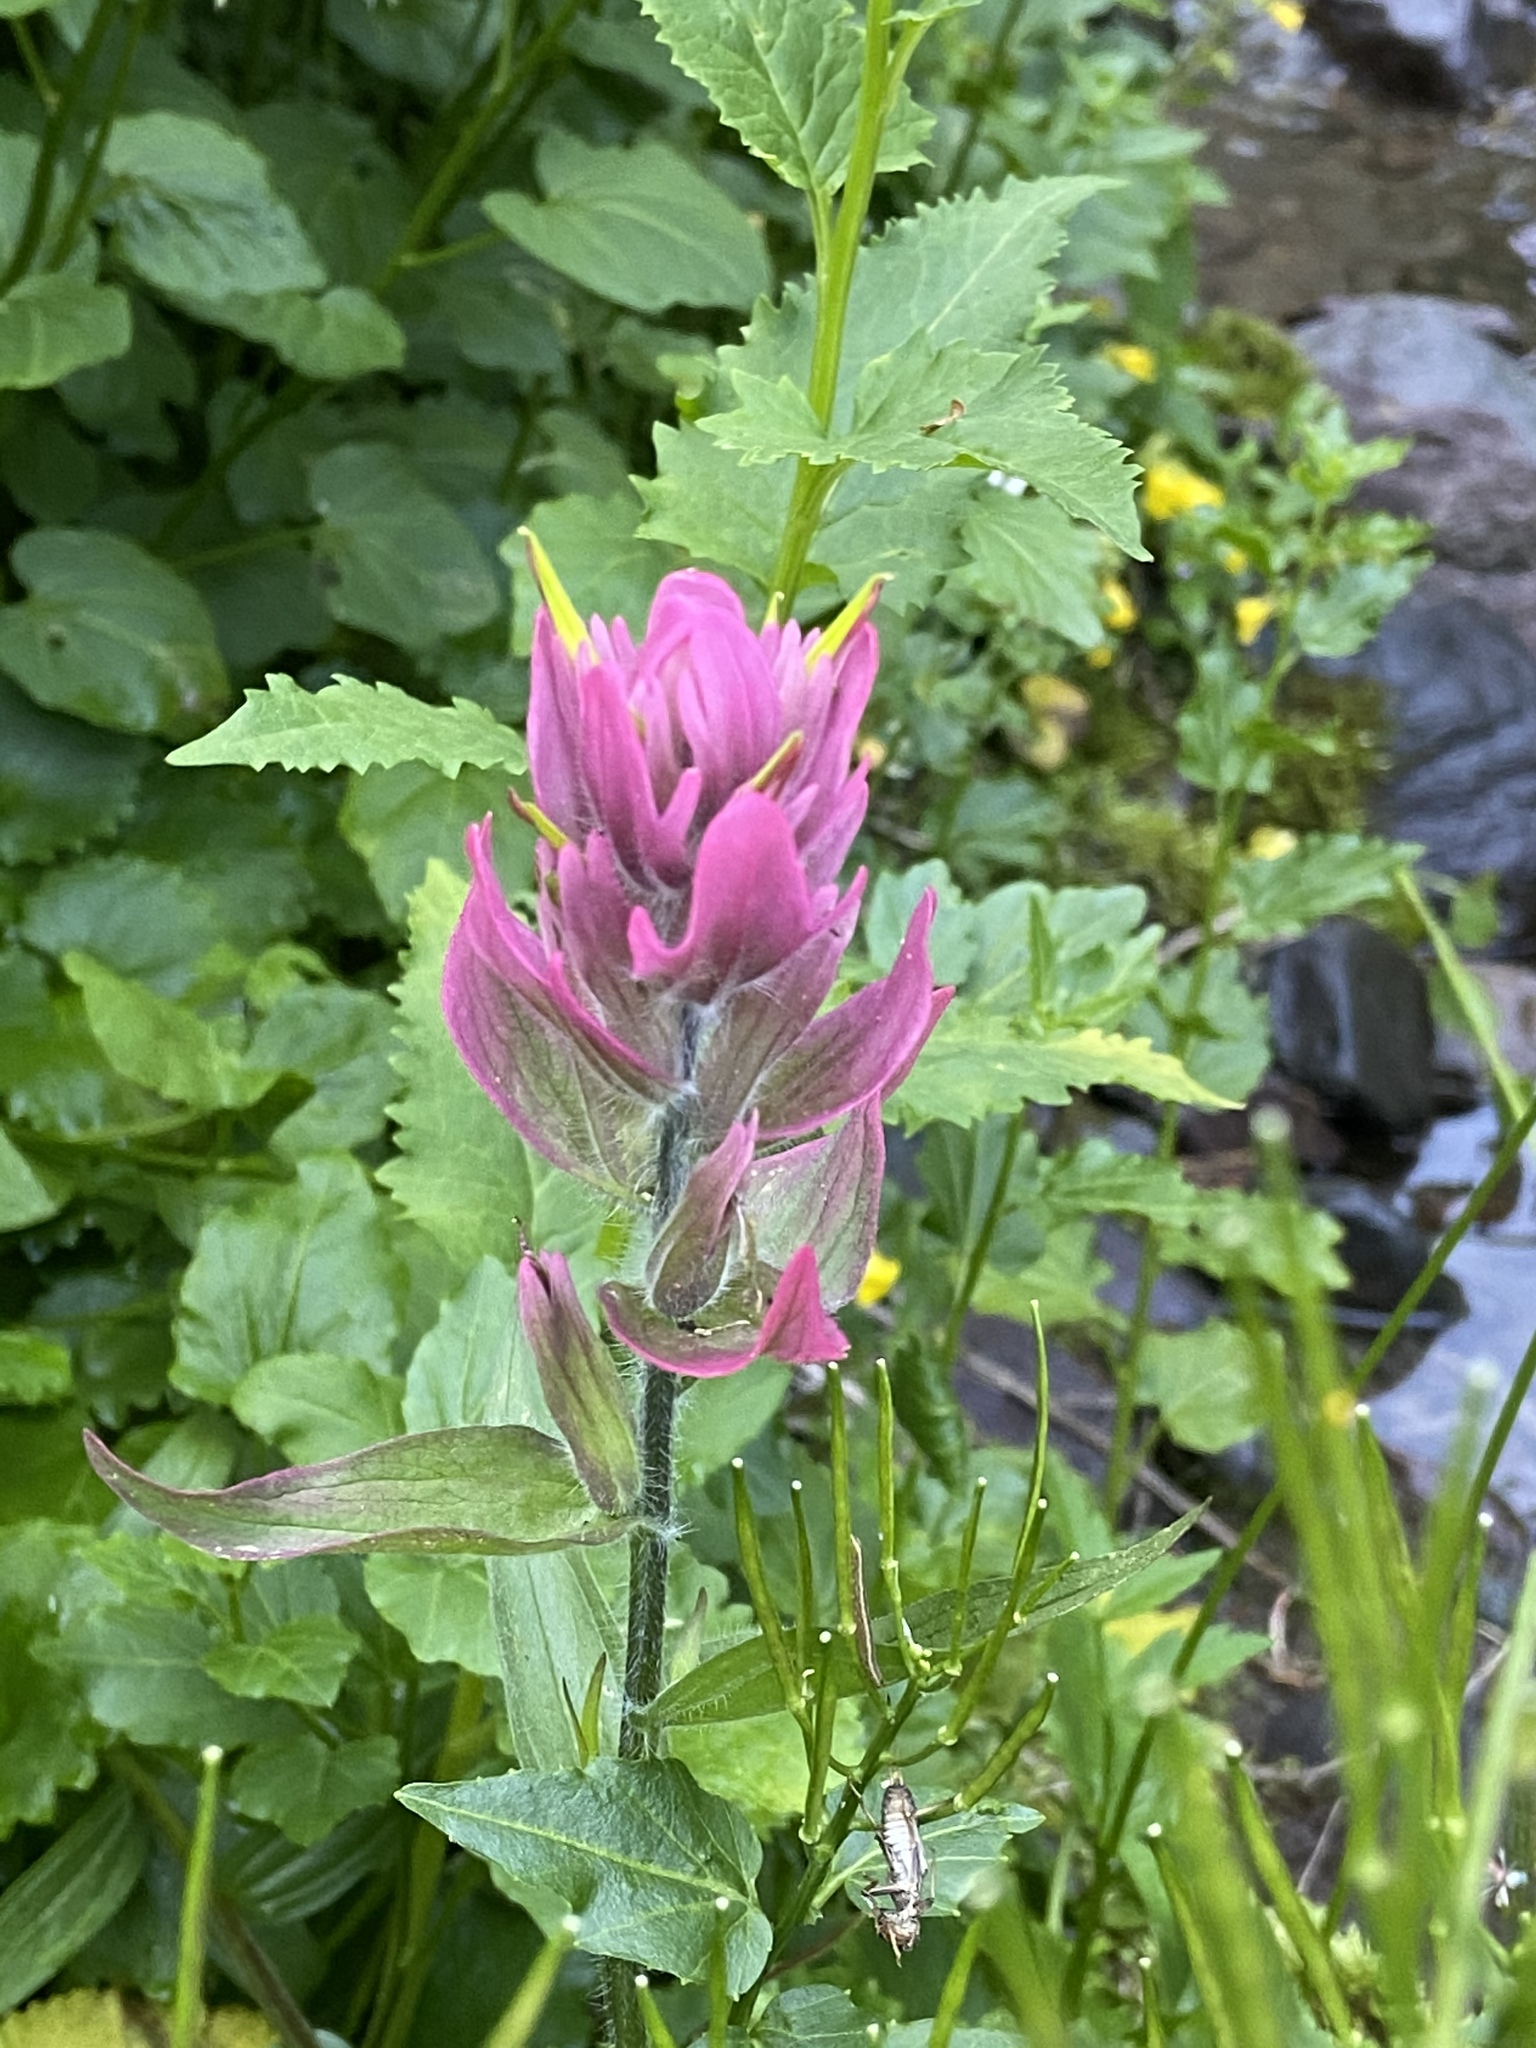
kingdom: Plantae
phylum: Tracheophyta
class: Magnoliopsida
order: Lamiales
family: Orobanchaceae
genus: Castilleja
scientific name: Castilleja rhexifolia
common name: Rocky mountain paintbrush
